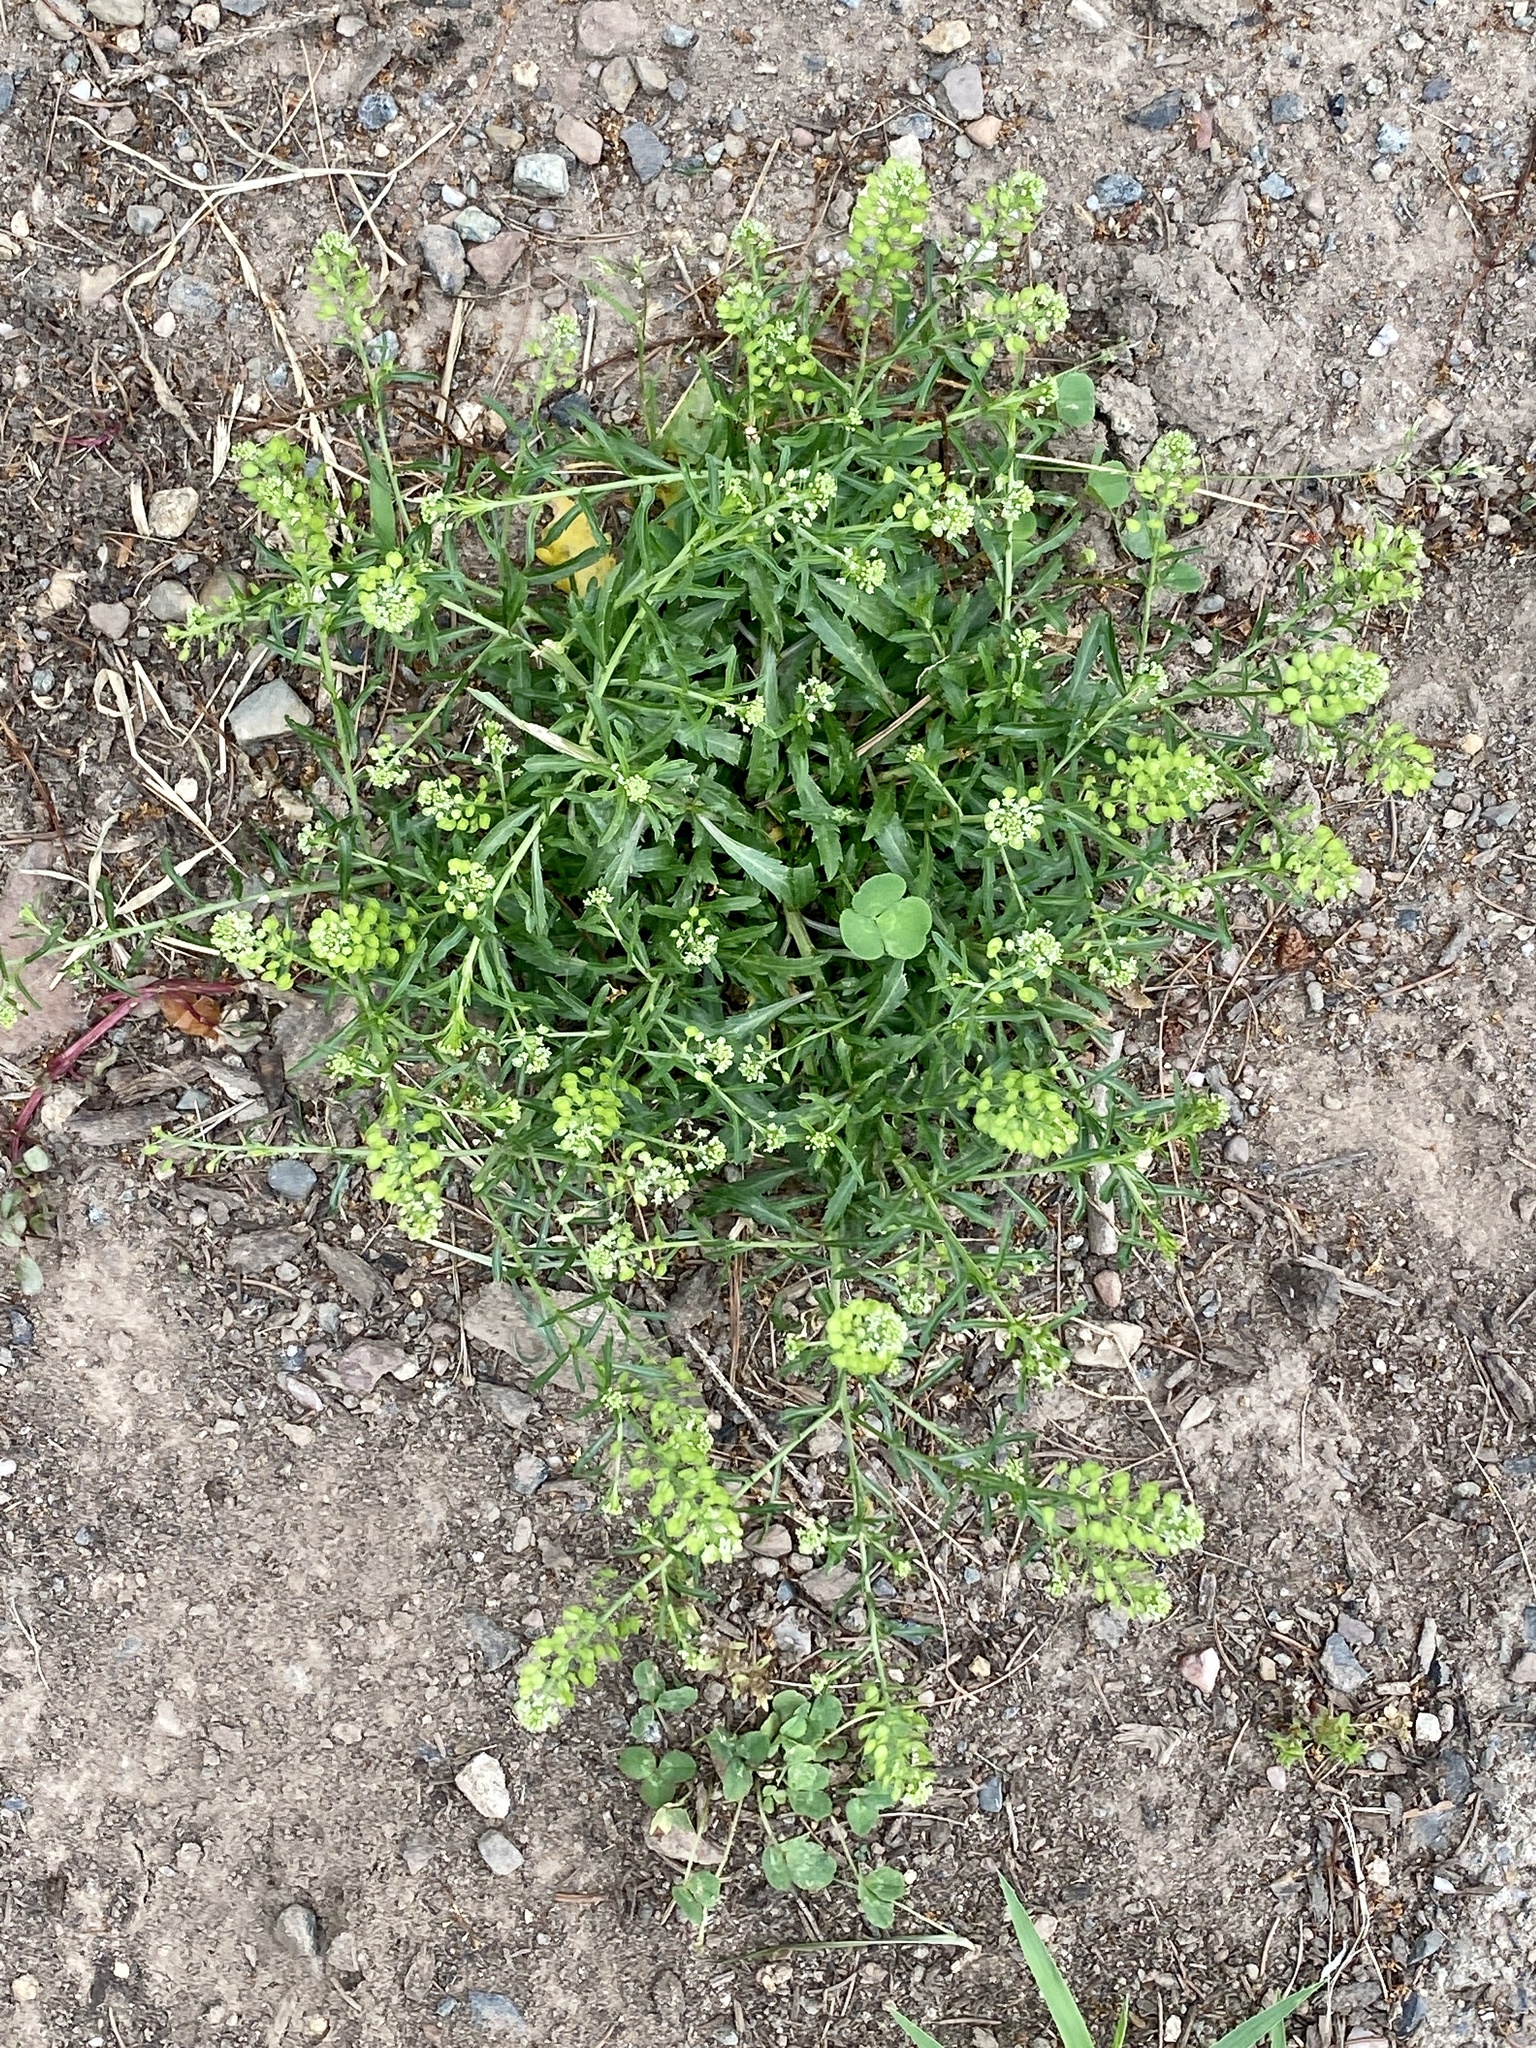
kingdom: Plantae
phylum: Tracheophyta
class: Magnoliopsida
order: Brassicales
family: Brassicaceae
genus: Lepidium
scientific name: Lepidium virginicum
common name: Least pepperwort
